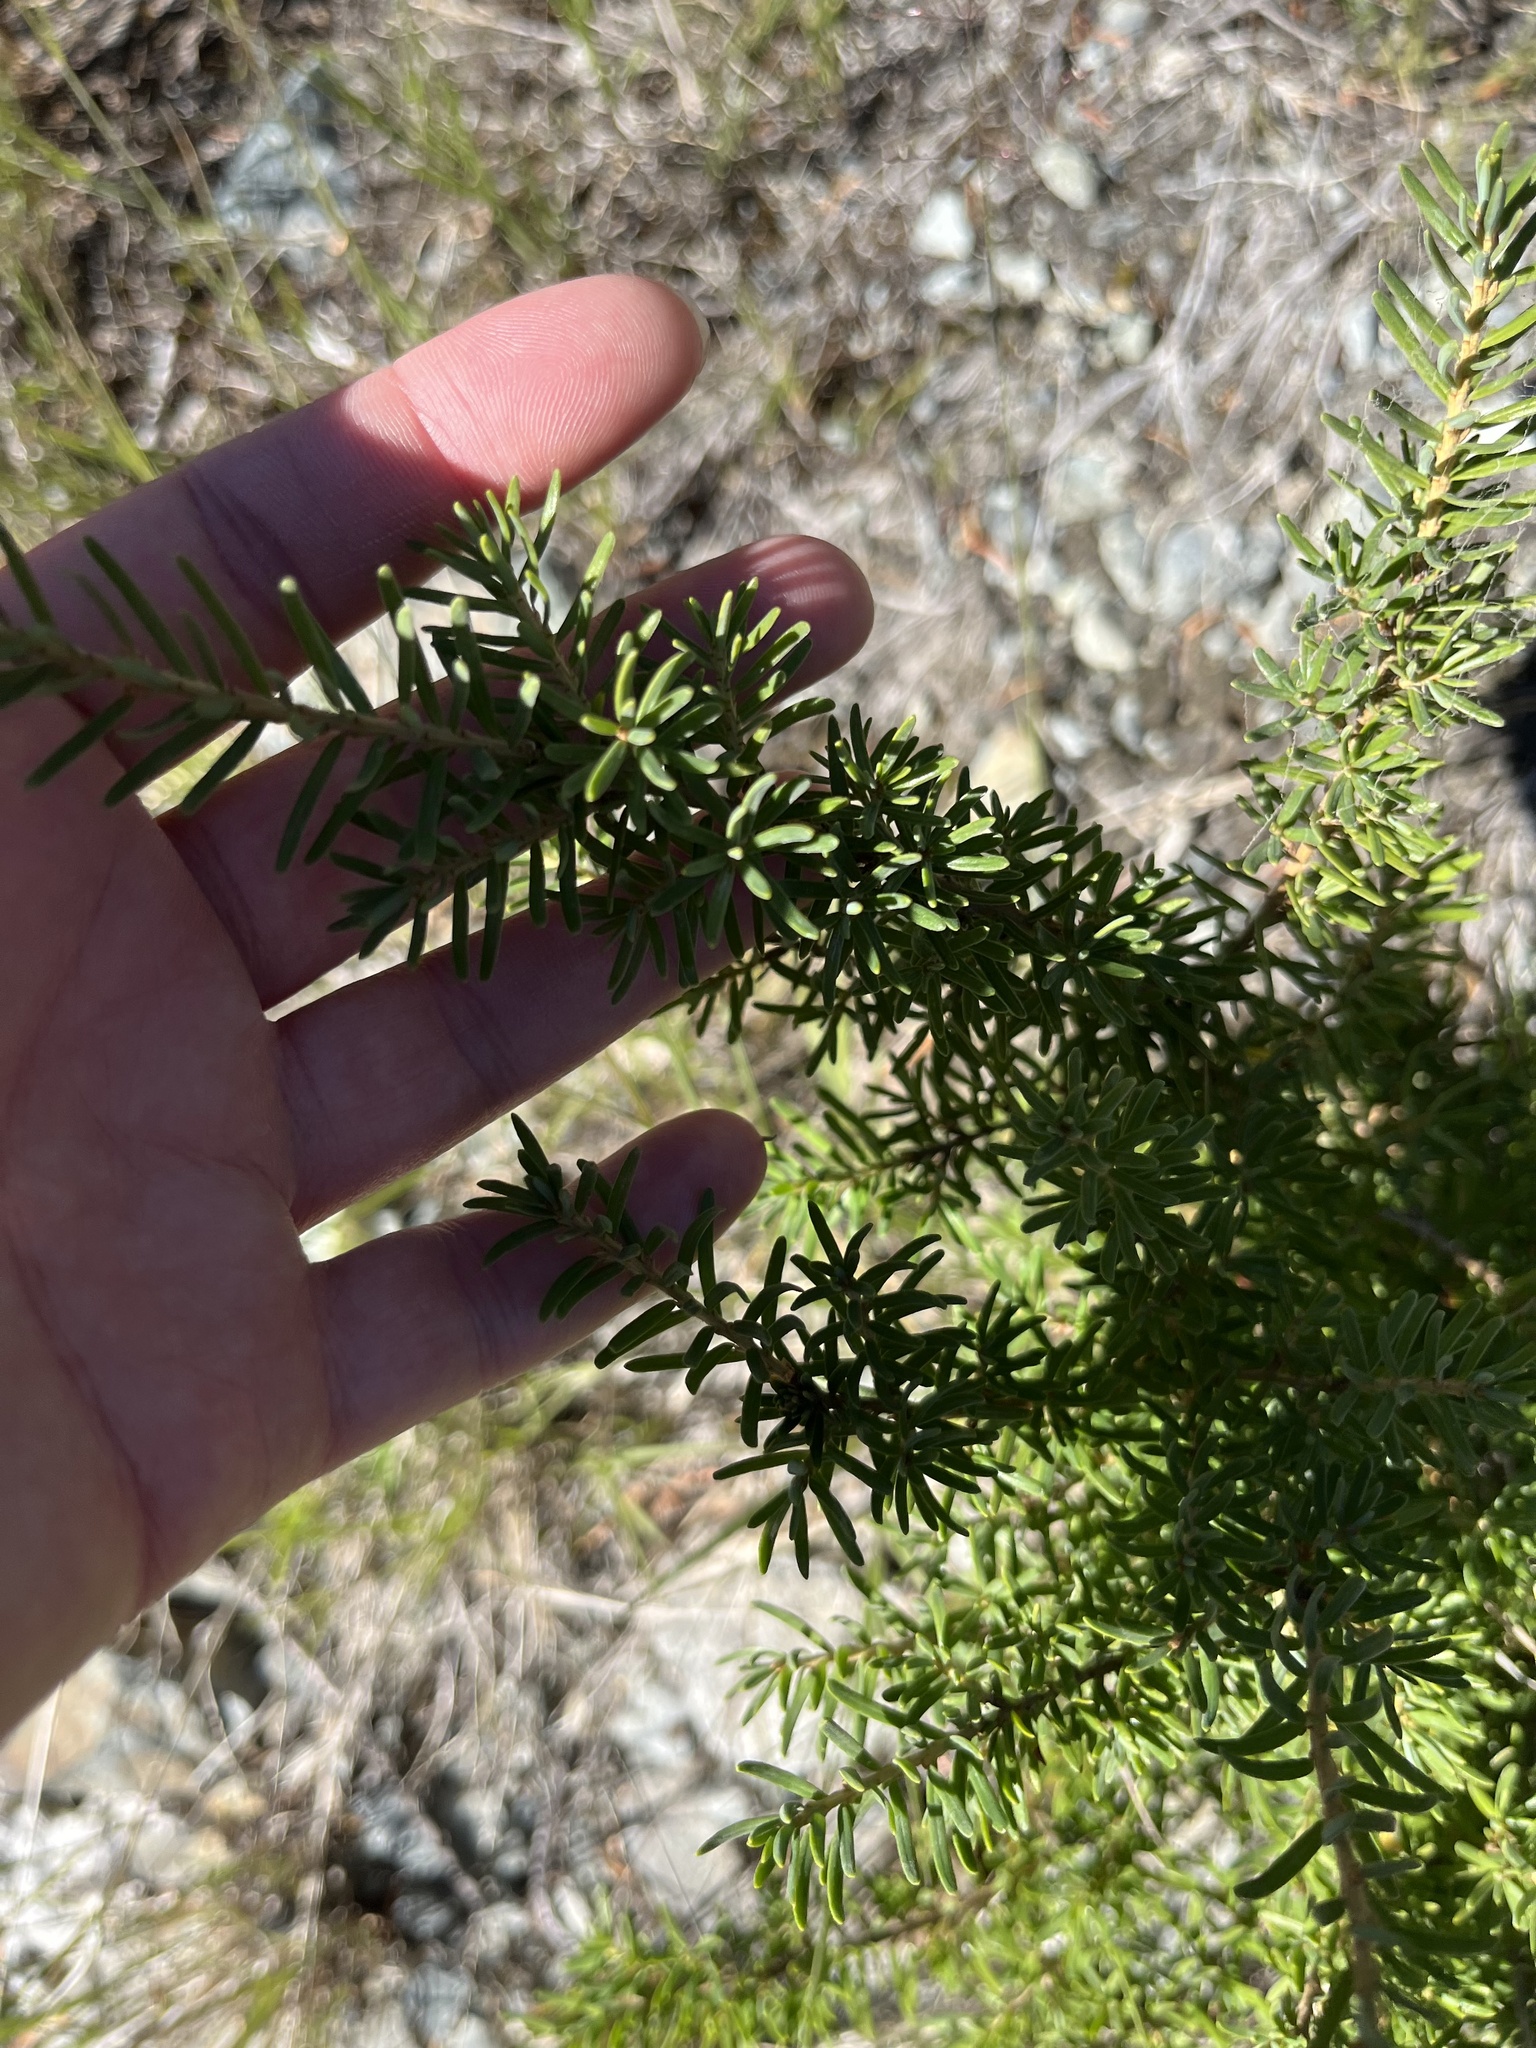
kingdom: Plantae
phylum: Tracheophyta
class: Pinopsida
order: Pinales
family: Pinaceae
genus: Tsuga
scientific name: Tsuga mertensiana
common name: Mountain hemlock
